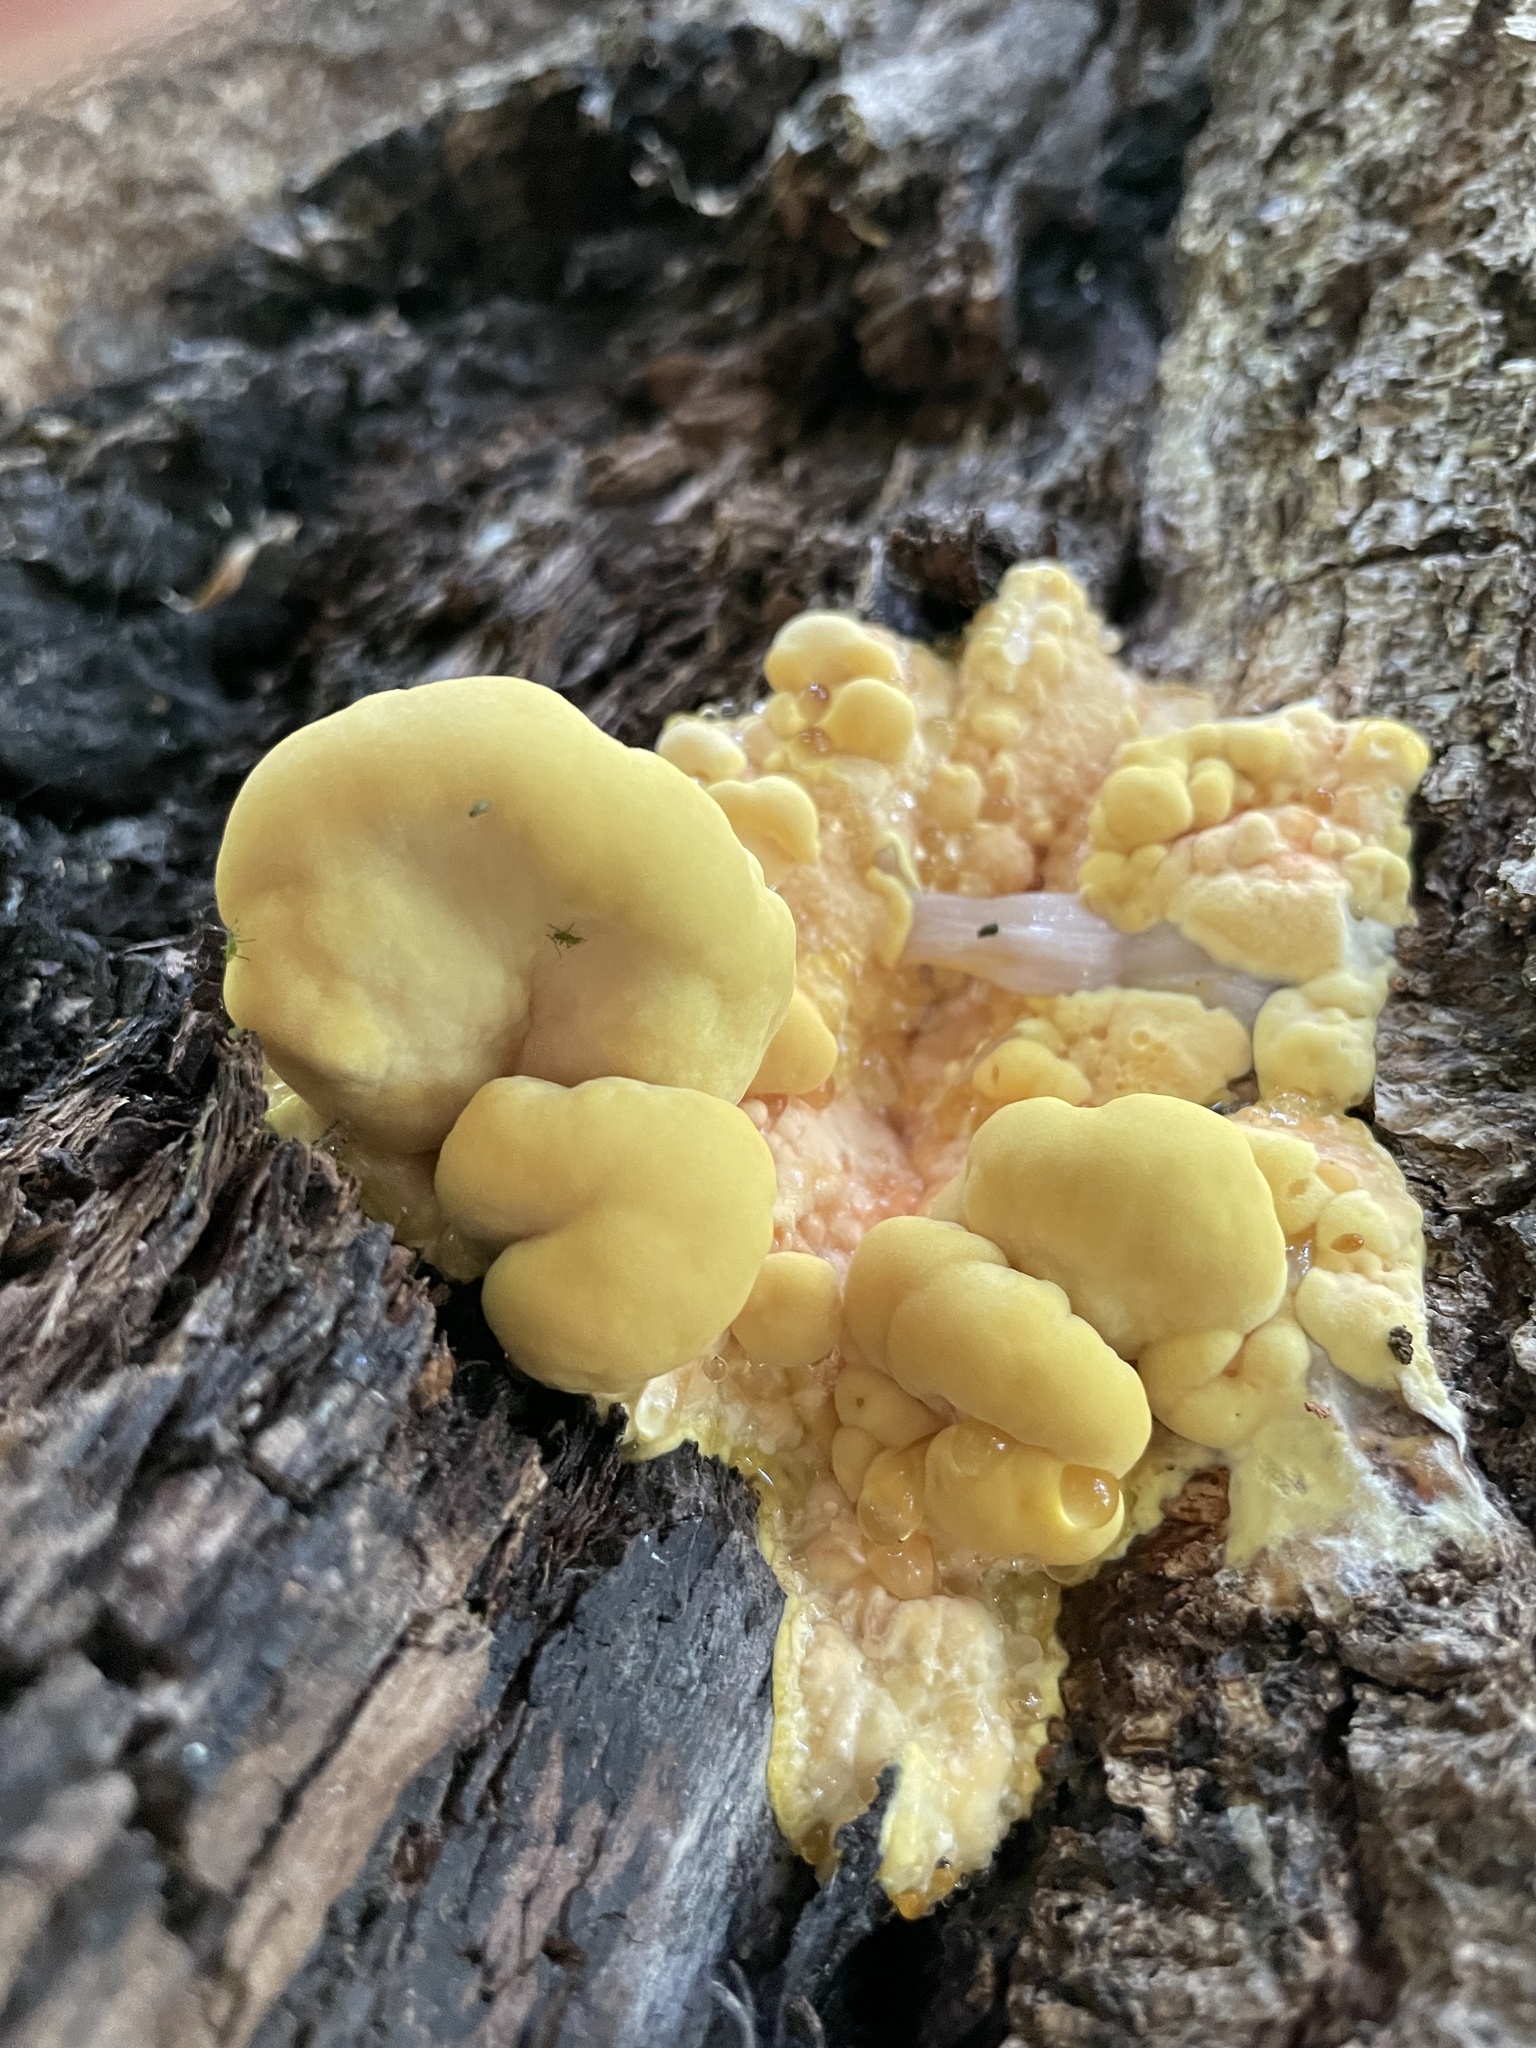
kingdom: Fungi
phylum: Basidiomycota
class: Agaricomycetes
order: Polyporales
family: Laetiporaceae
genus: Laetiporus
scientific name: Laetiporus sulphureus
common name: Chicken of the woods
